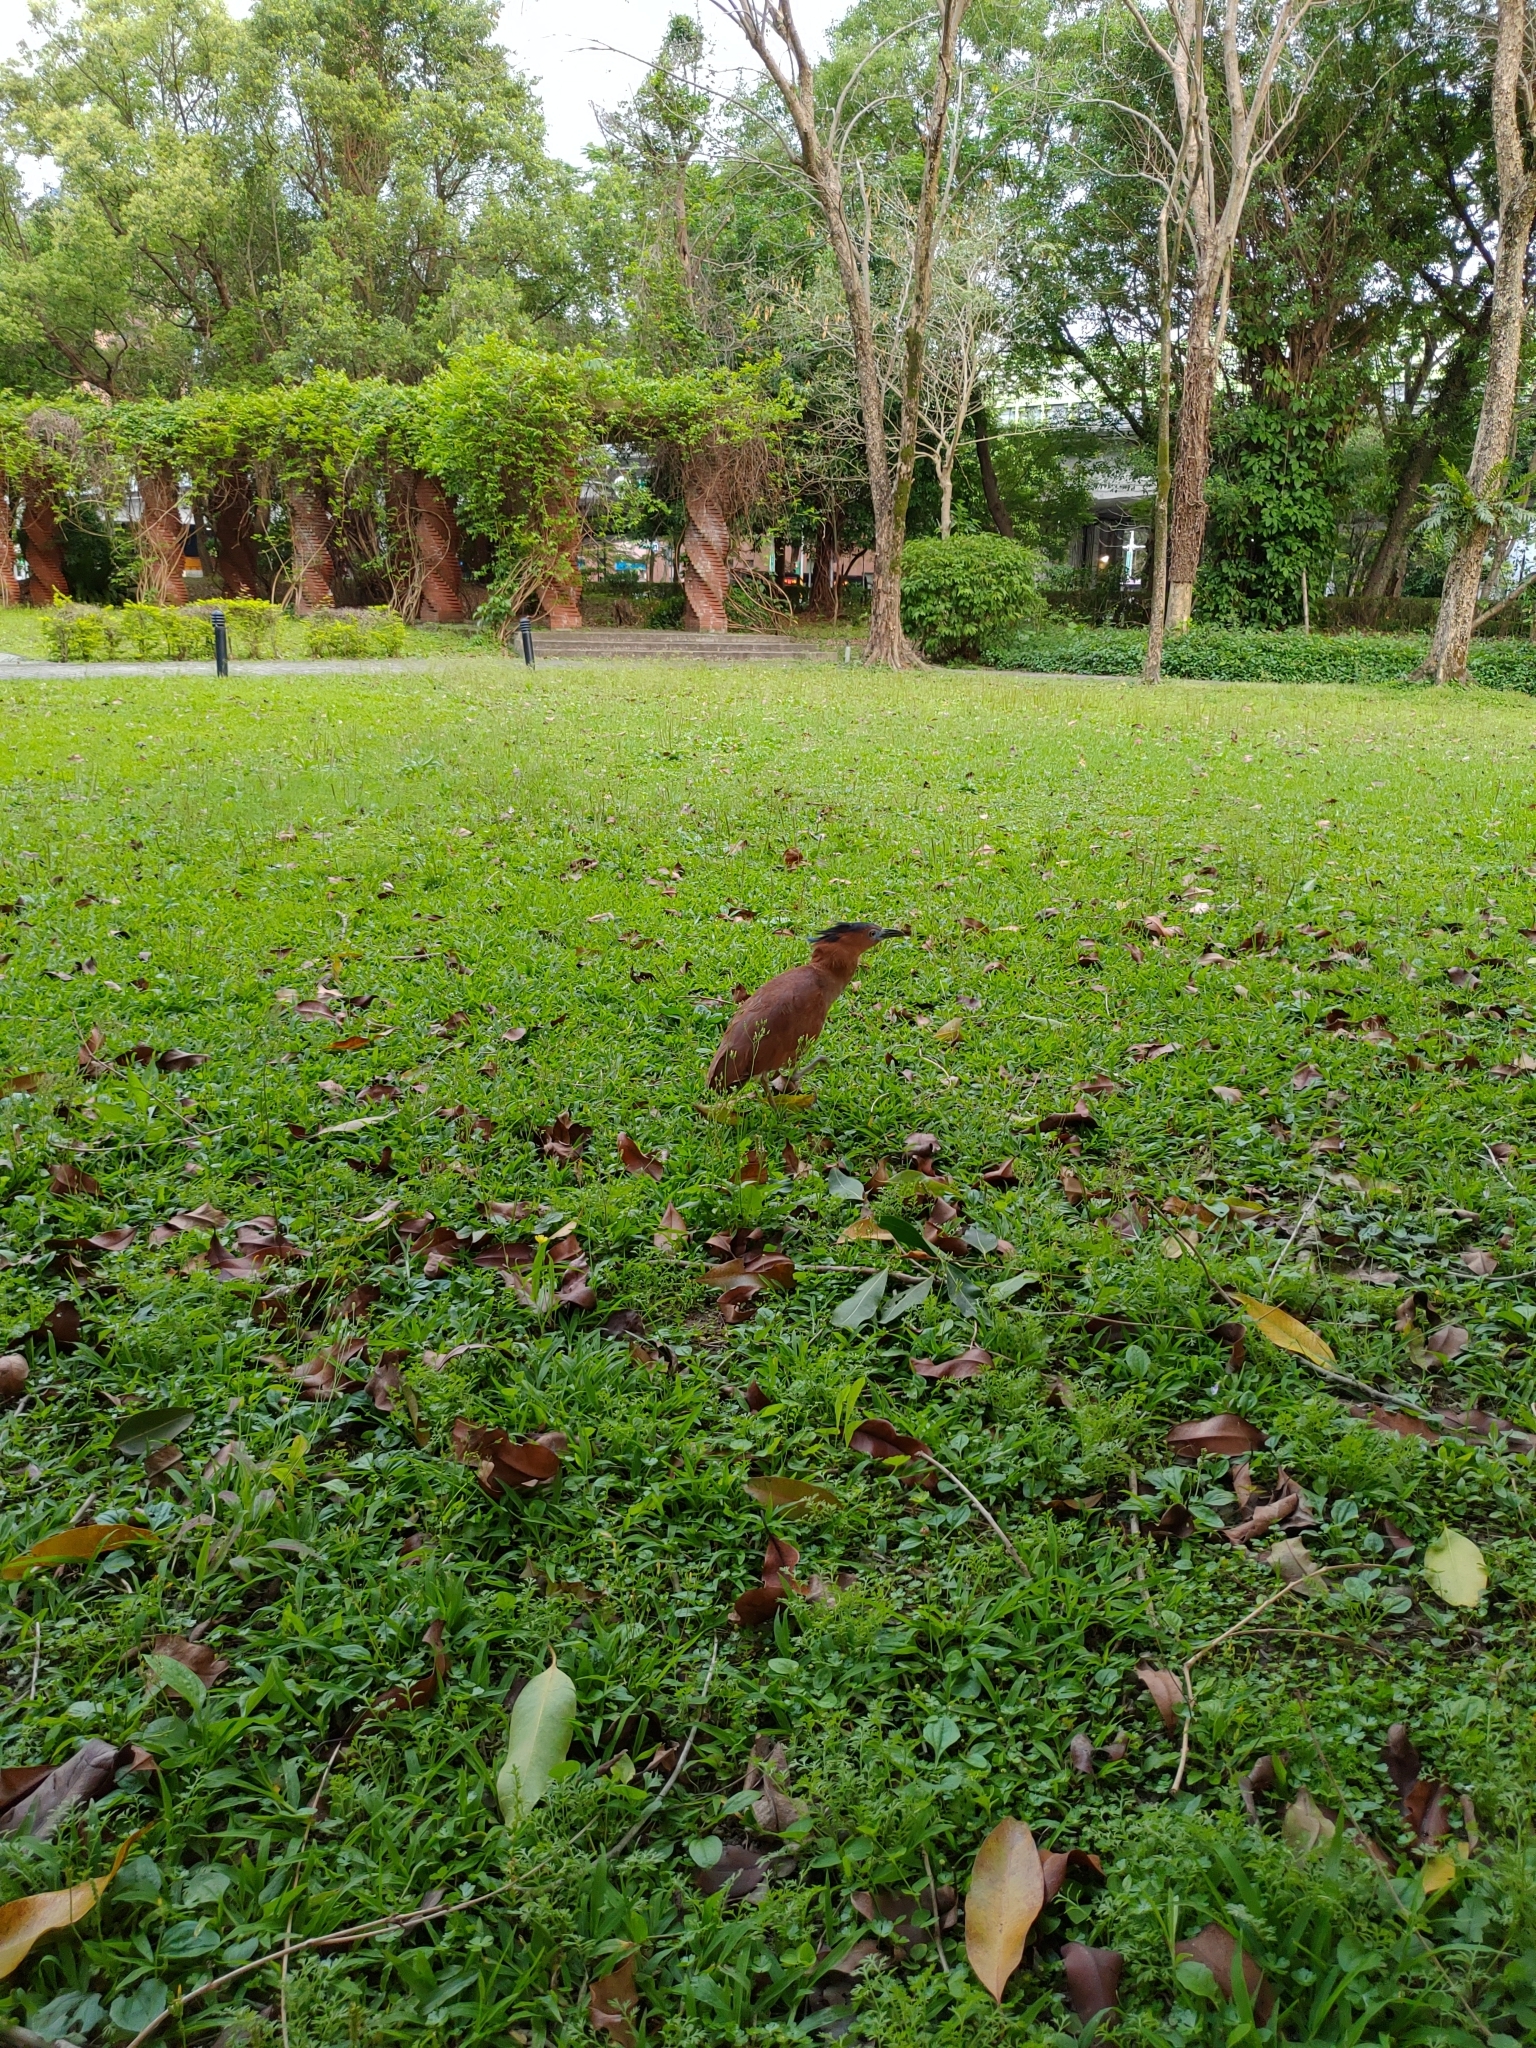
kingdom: Animalia
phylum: Chordata
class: Aves
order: Pelecaniformes
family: Ardeidae
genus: Gorsachius
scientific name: Gorsachius melanolophus
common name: Malayan night heron
